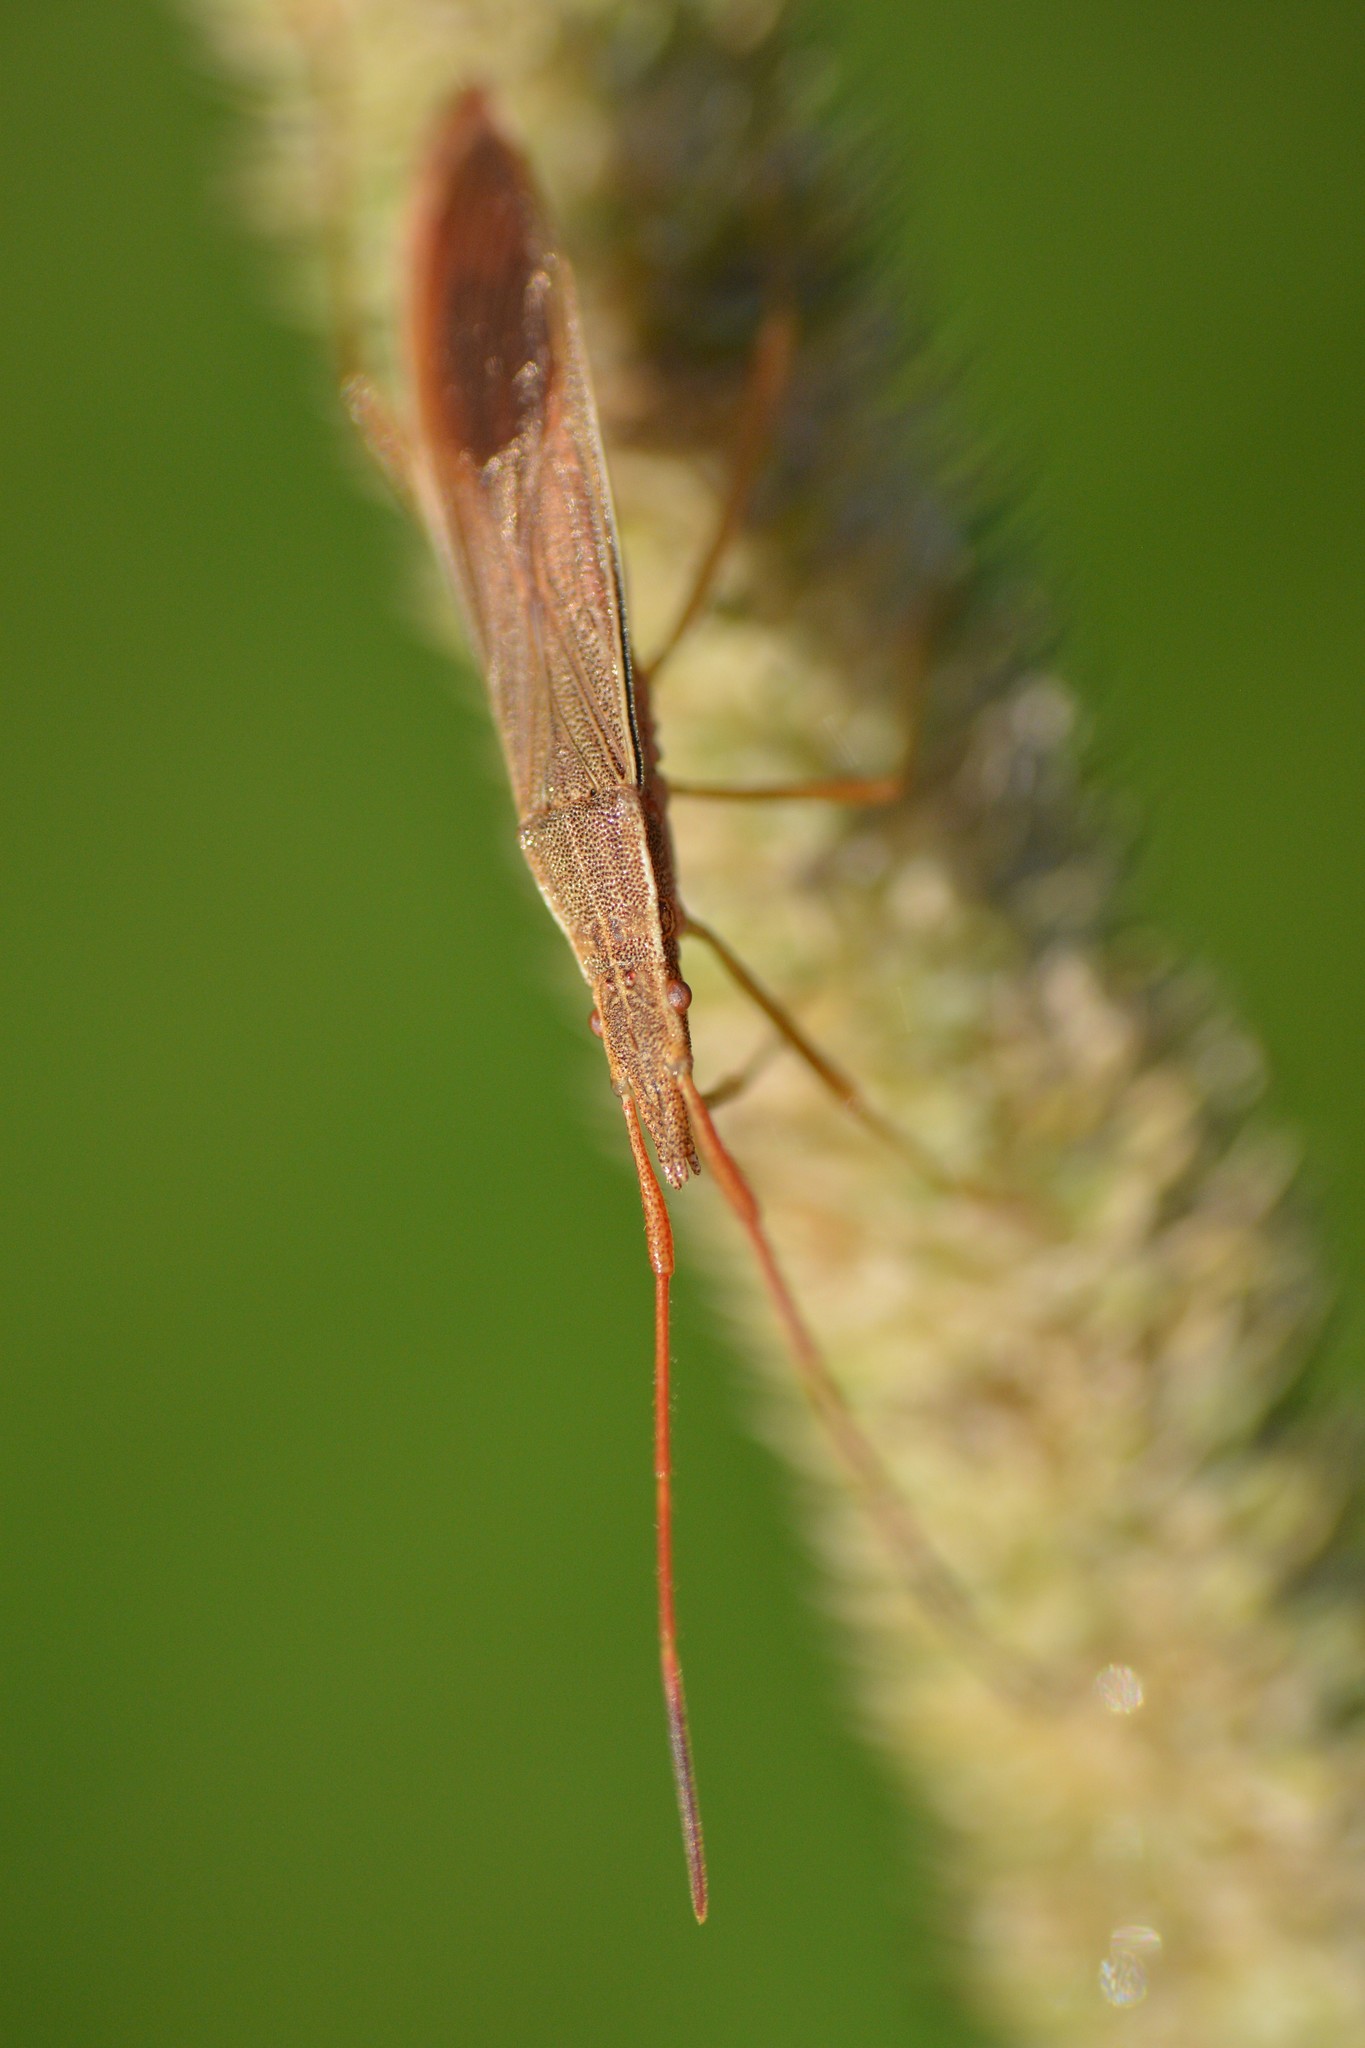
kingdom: Animalia
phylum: Arthropoda
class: Insecta
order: Hemiptera
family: Alydidae
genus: Protenor
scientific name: Protenor belfragei
